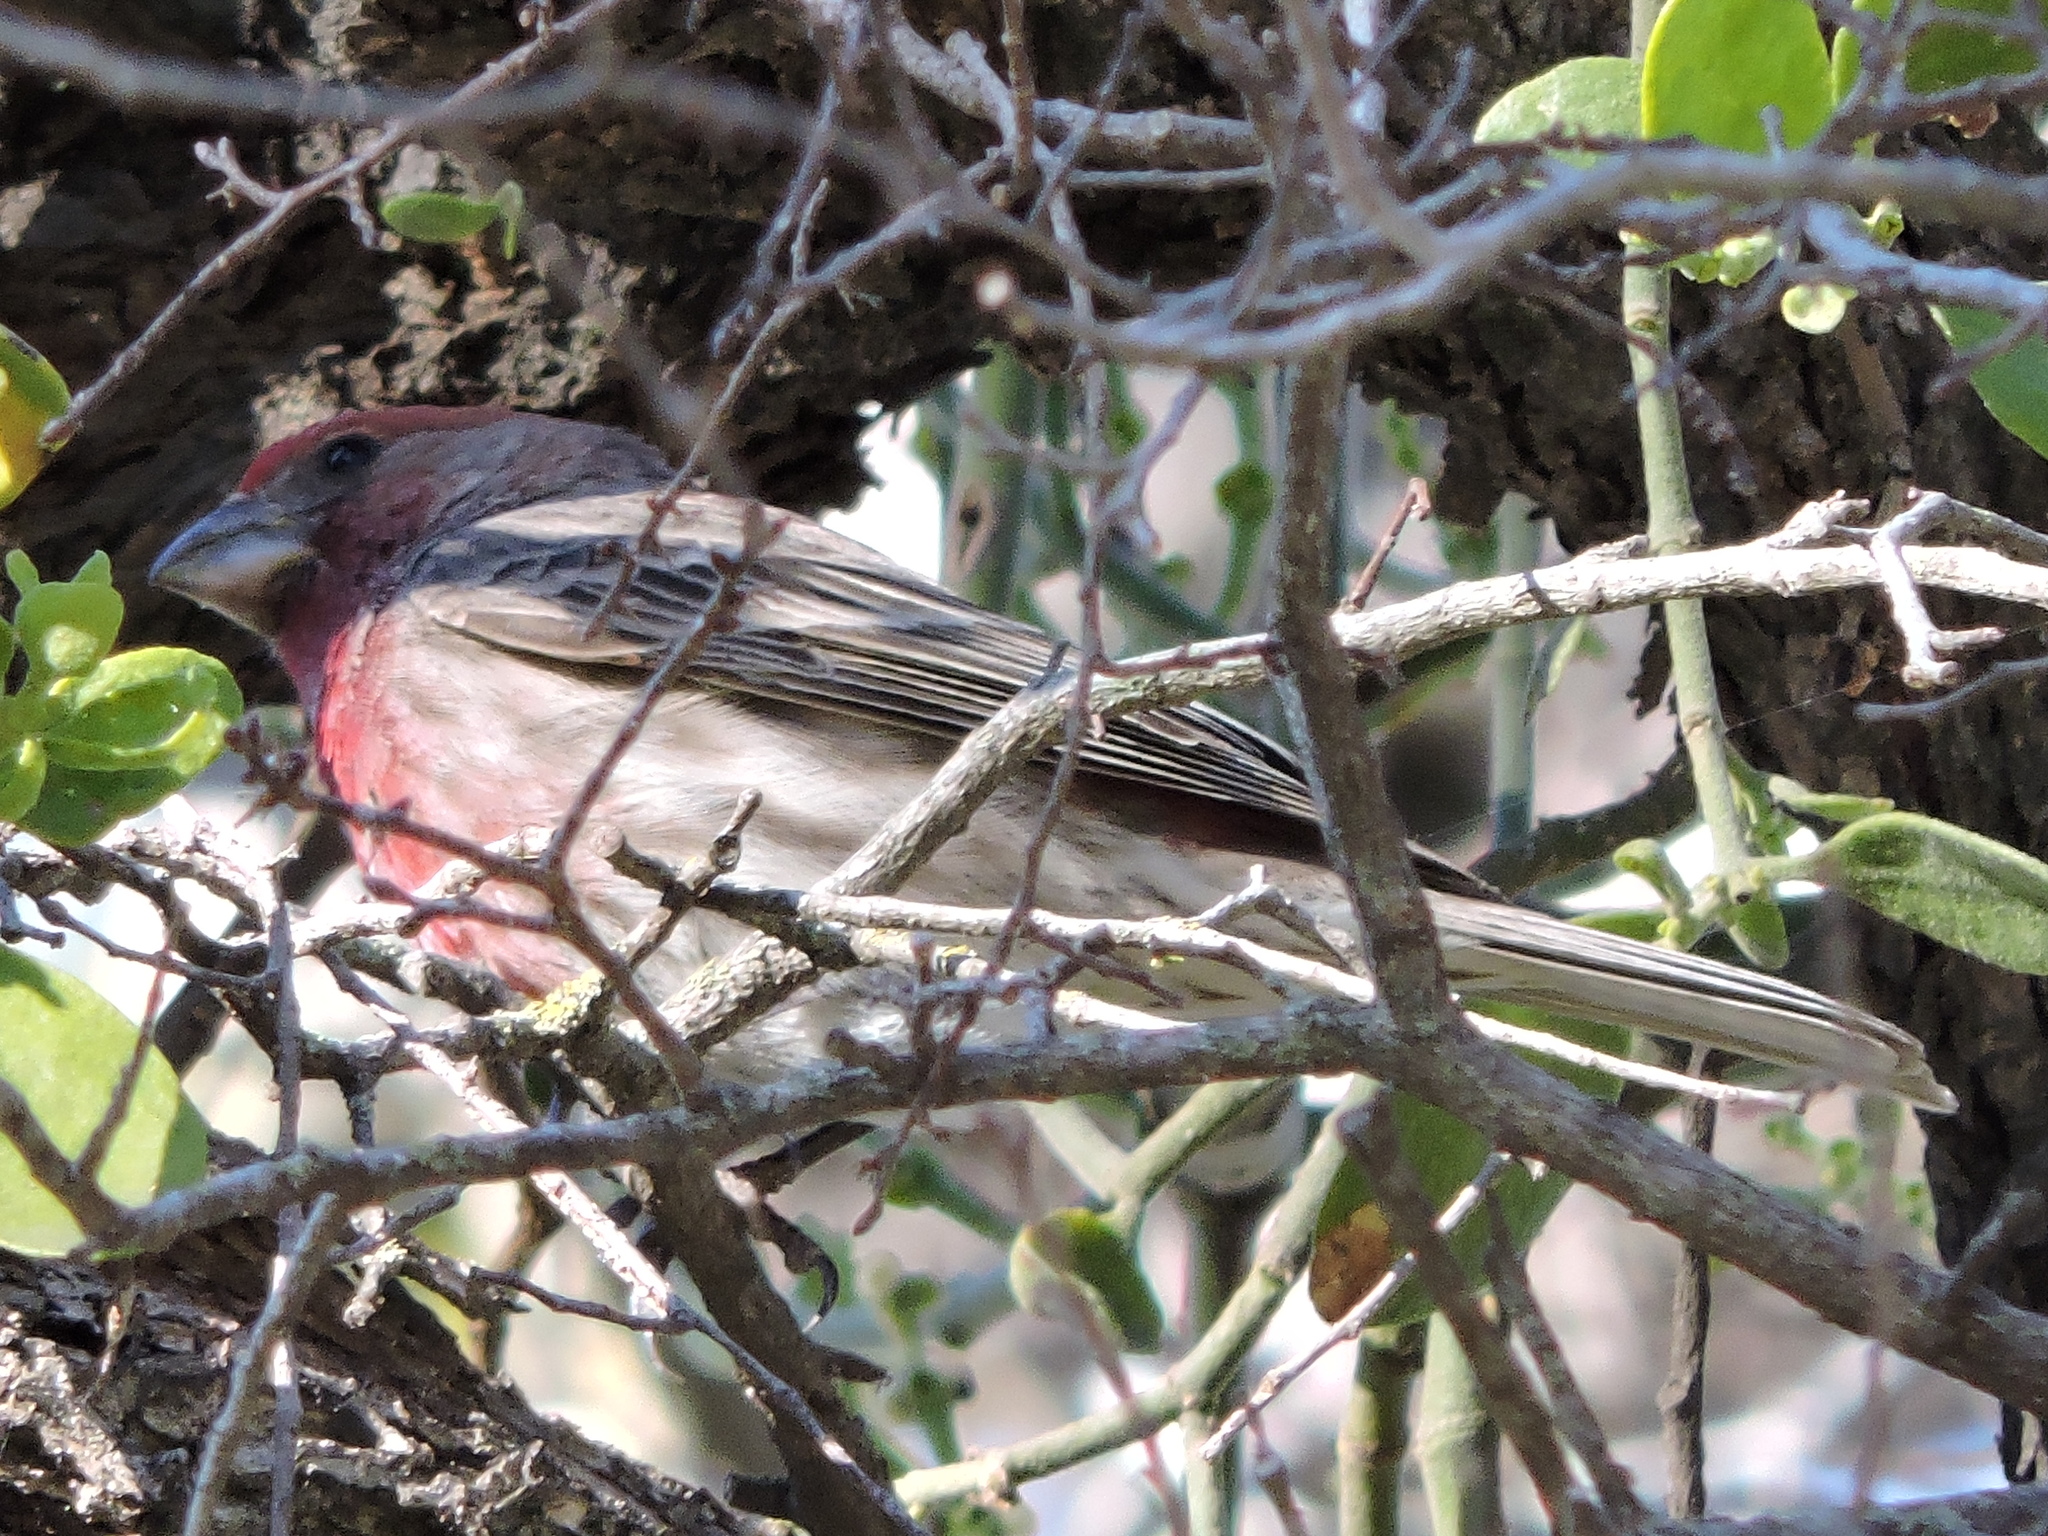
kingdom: Animalia
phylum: Chordata
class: Aves
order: Passeriformes
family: Fringillidae
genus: Haemorhous
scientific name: Haemorhous mexicanus
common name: House finch
